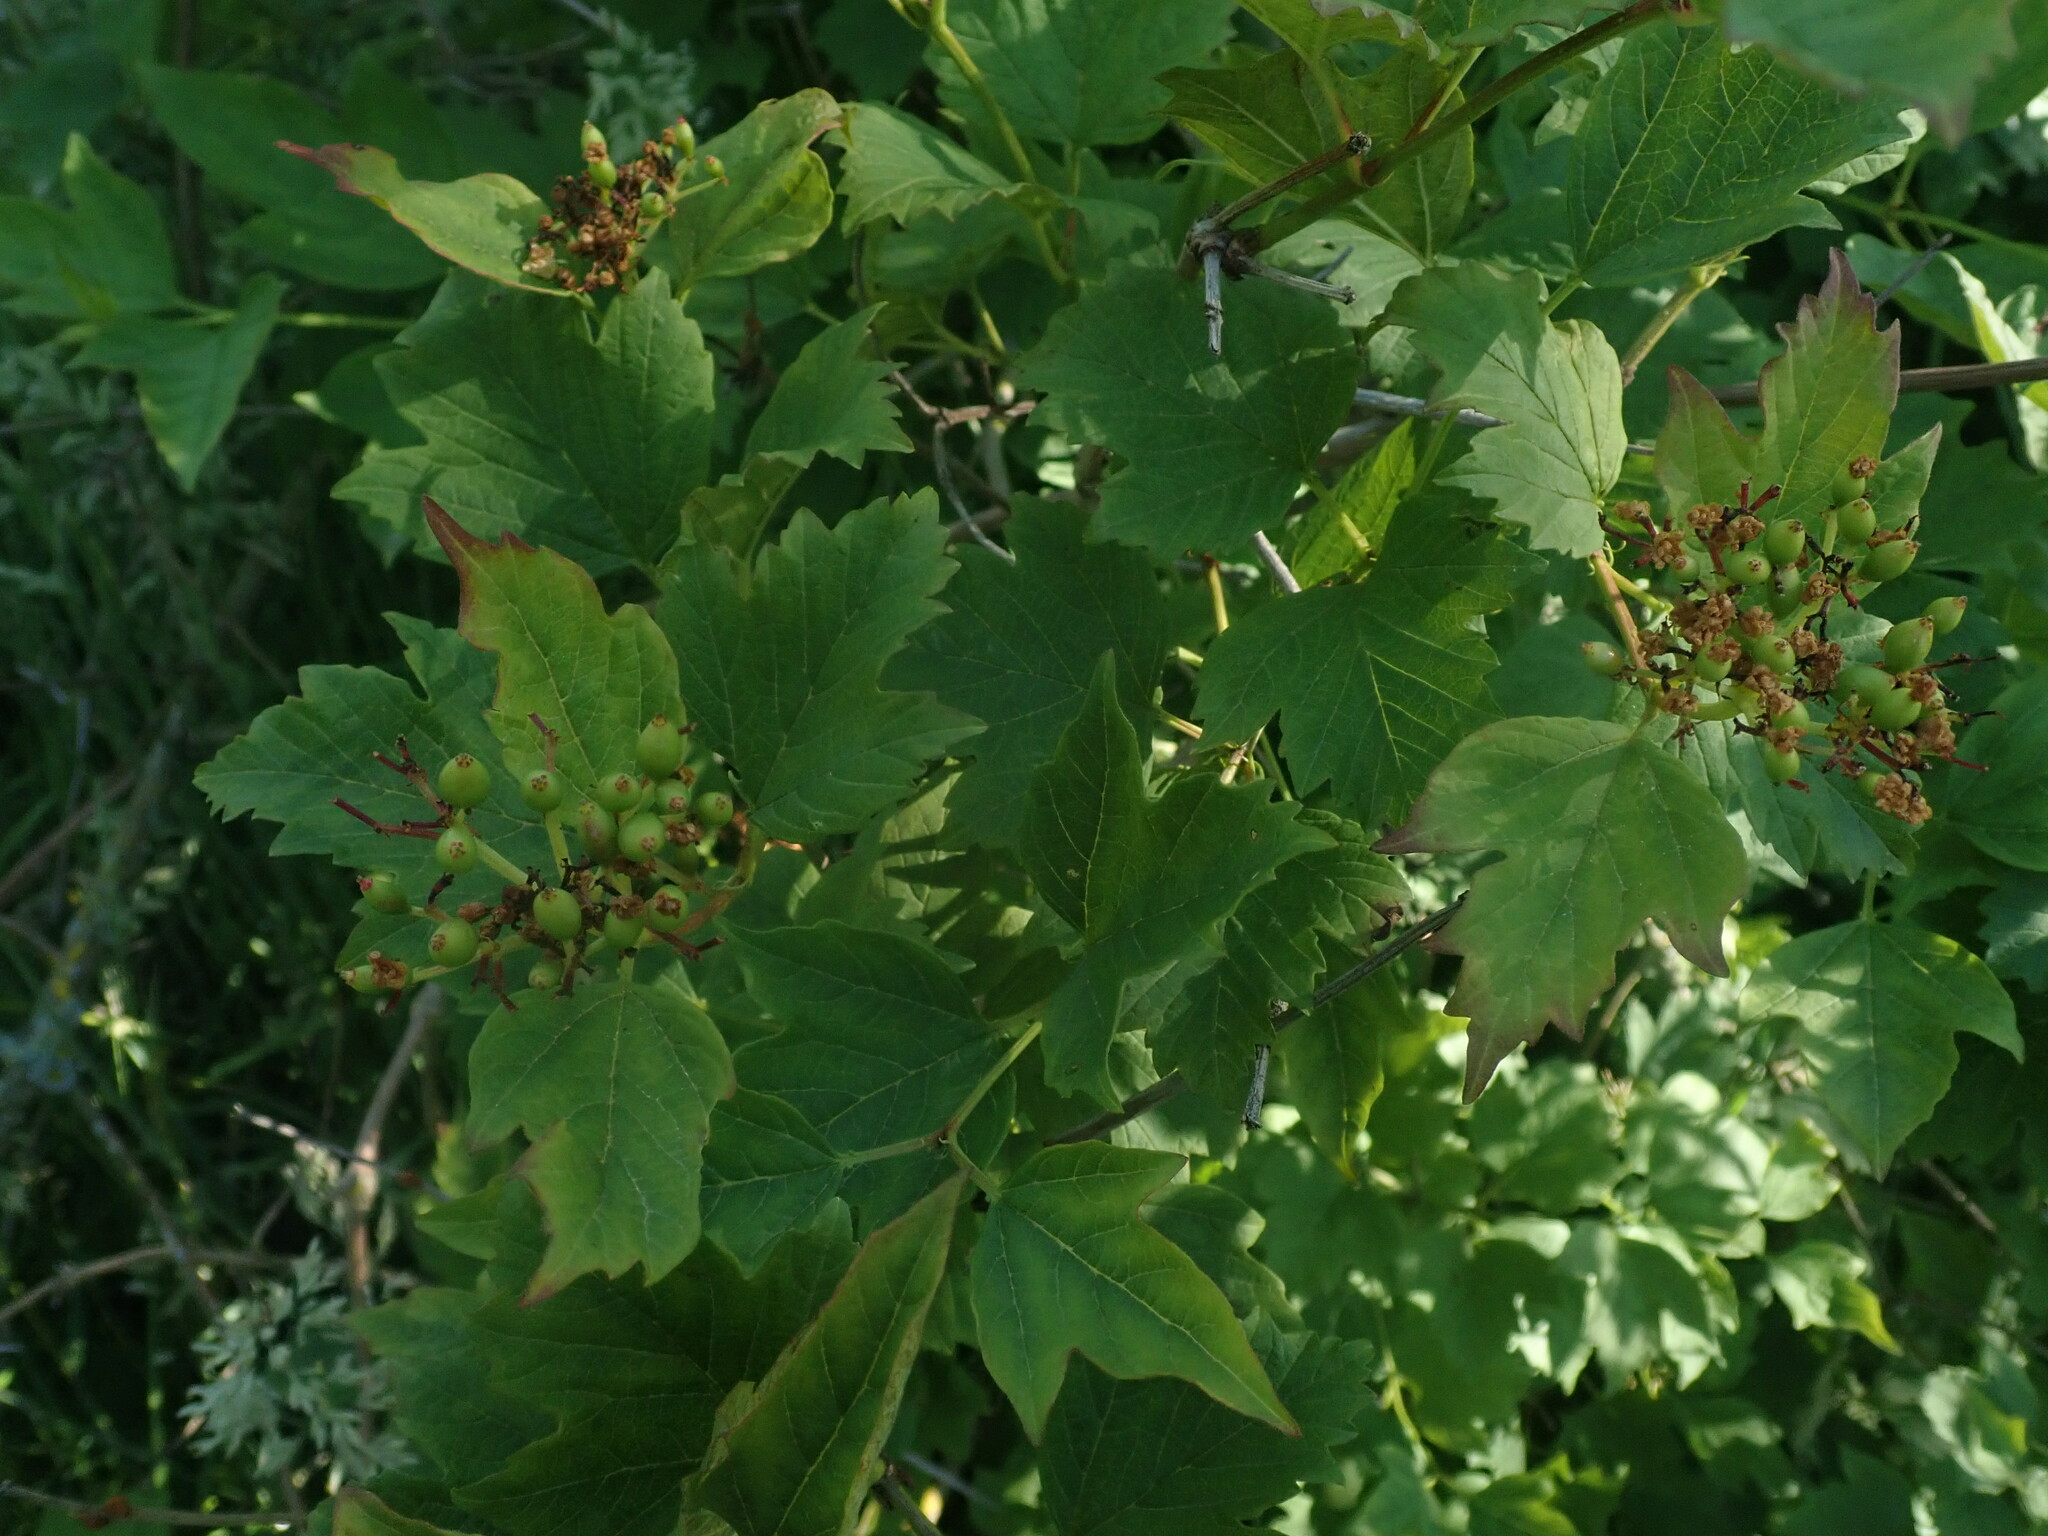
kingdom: Plantae
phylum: Tracheophyta
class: Magnoliopsida
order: Dipsacales
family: Viburnaceae
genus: Viburnum
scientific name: Viburnum opulus
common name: Guelder-rose
